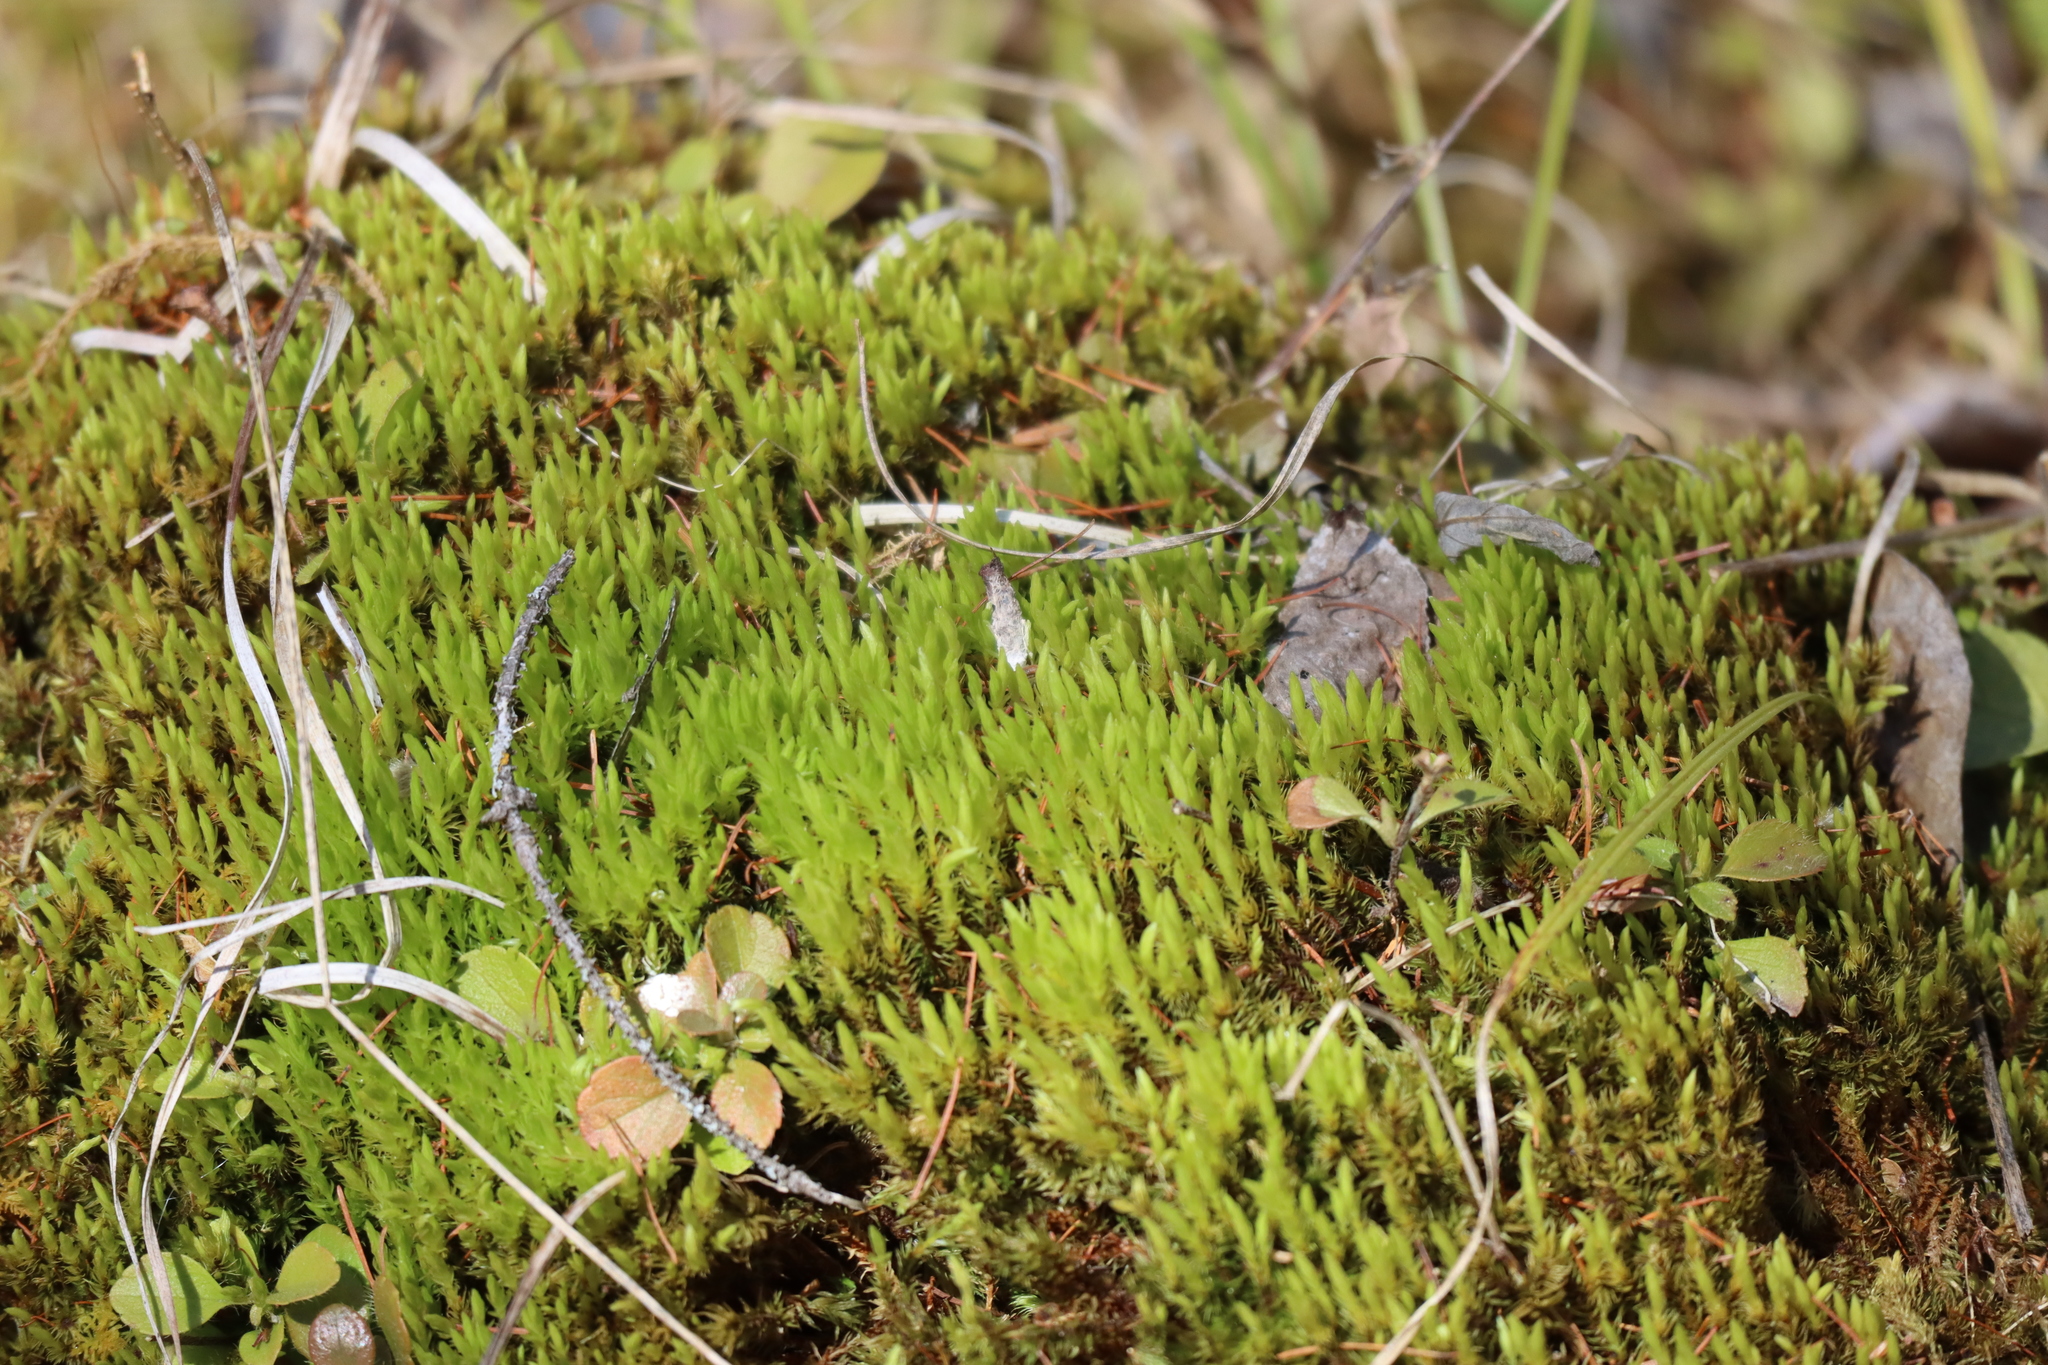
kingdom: Plantae
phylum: Bryophyta
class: Bryopsida
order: Aulacomniales
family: Aulacomniaceae
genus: Aulacomnium
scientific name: Aulacomnium palustre
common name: Bog groove-moss
